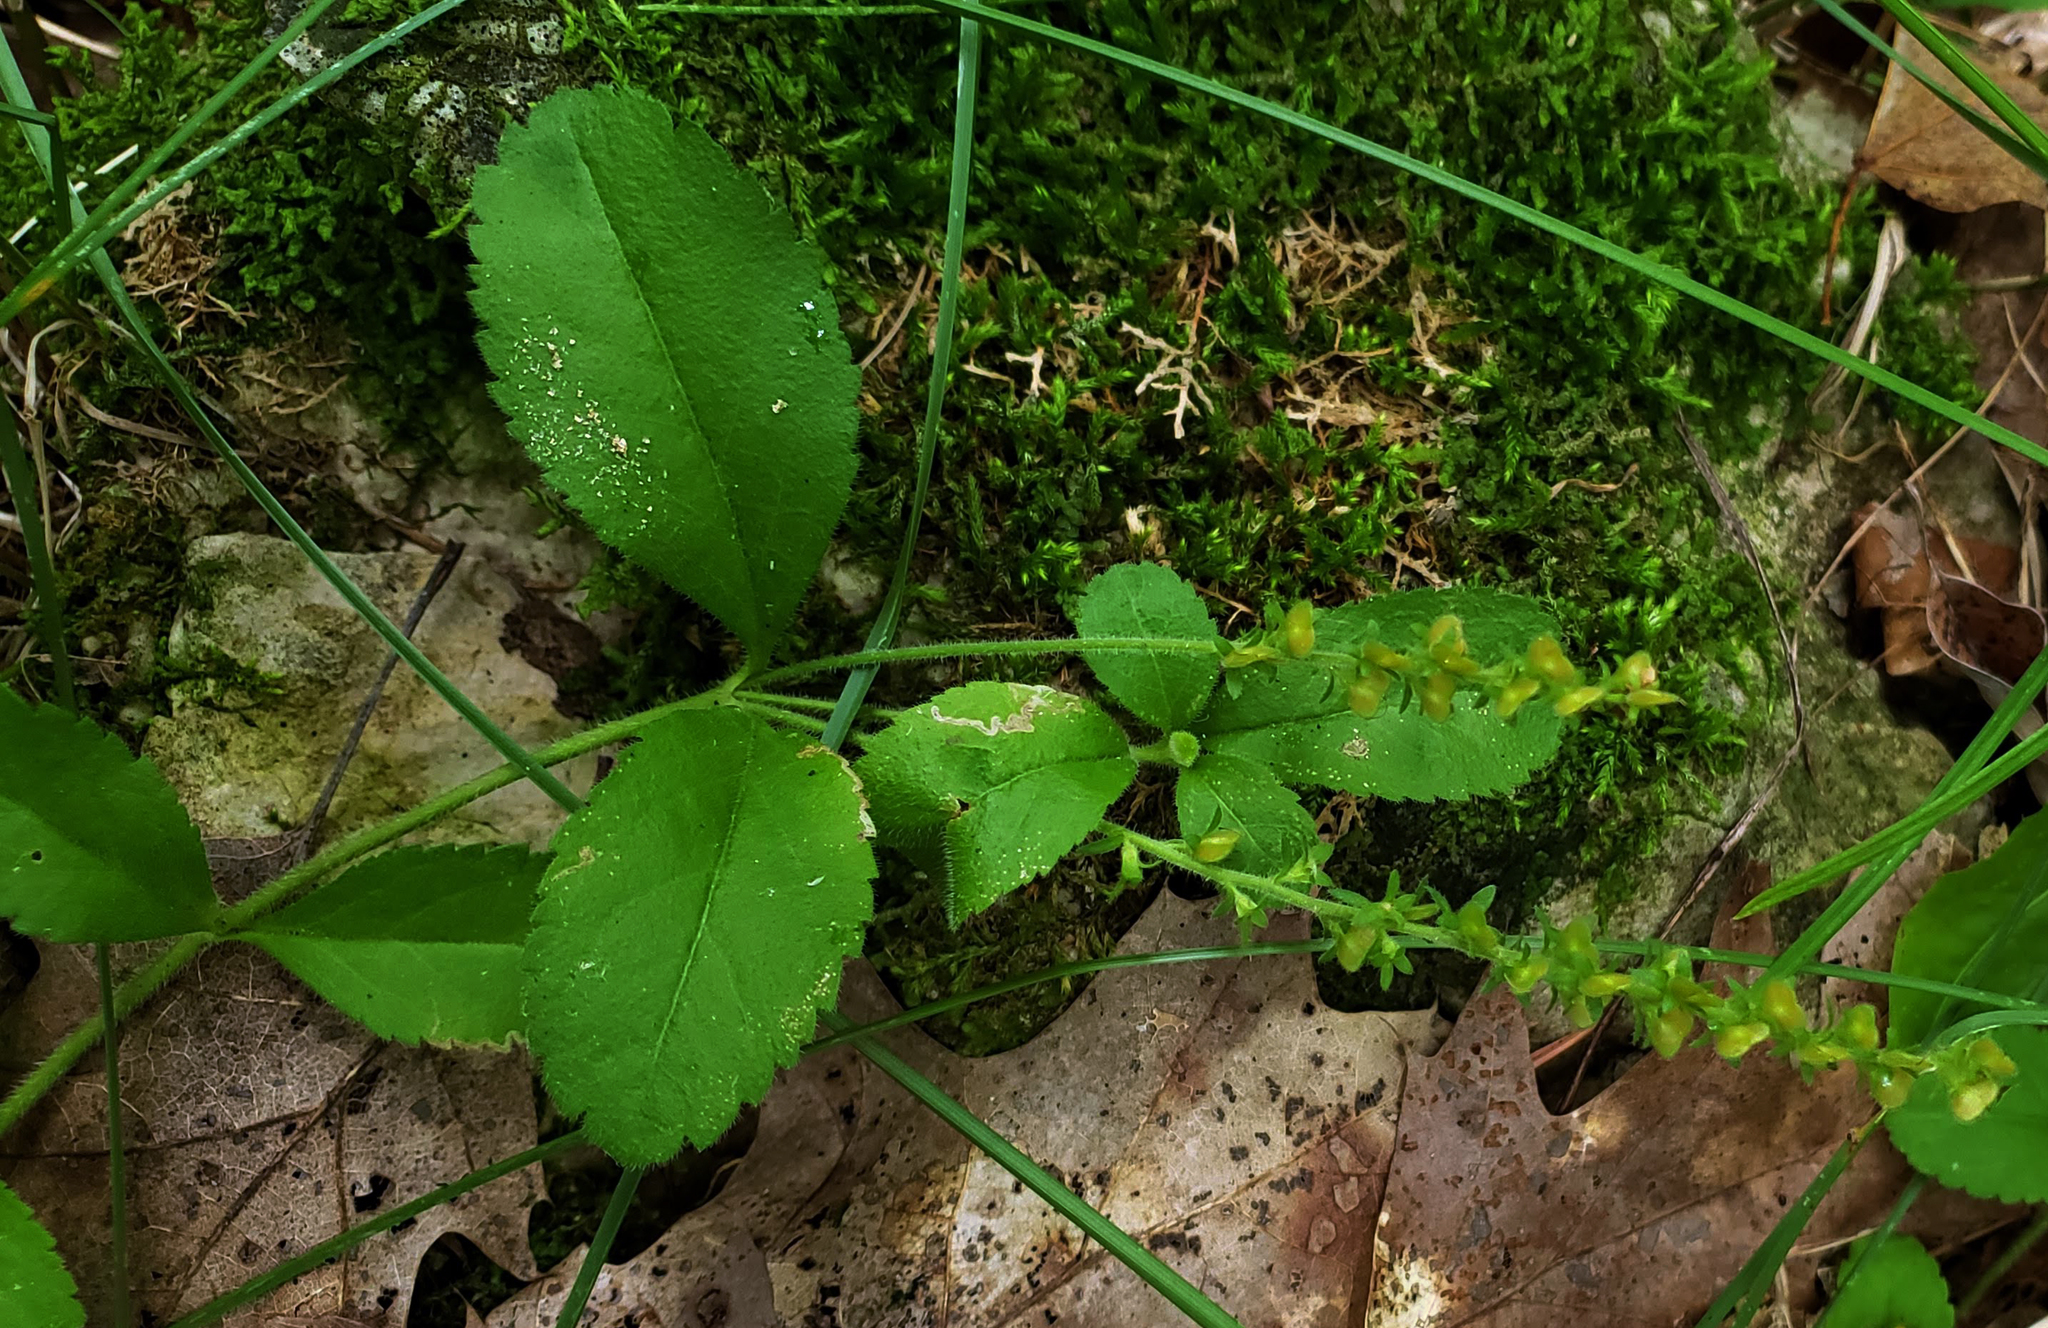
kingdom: Plantae
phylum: Tracheophyta
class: Magnoliopsida
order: Lamiales
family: Plantaginaceae
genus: Veronica
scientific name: Veronica officinalis
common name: Common speedwell
